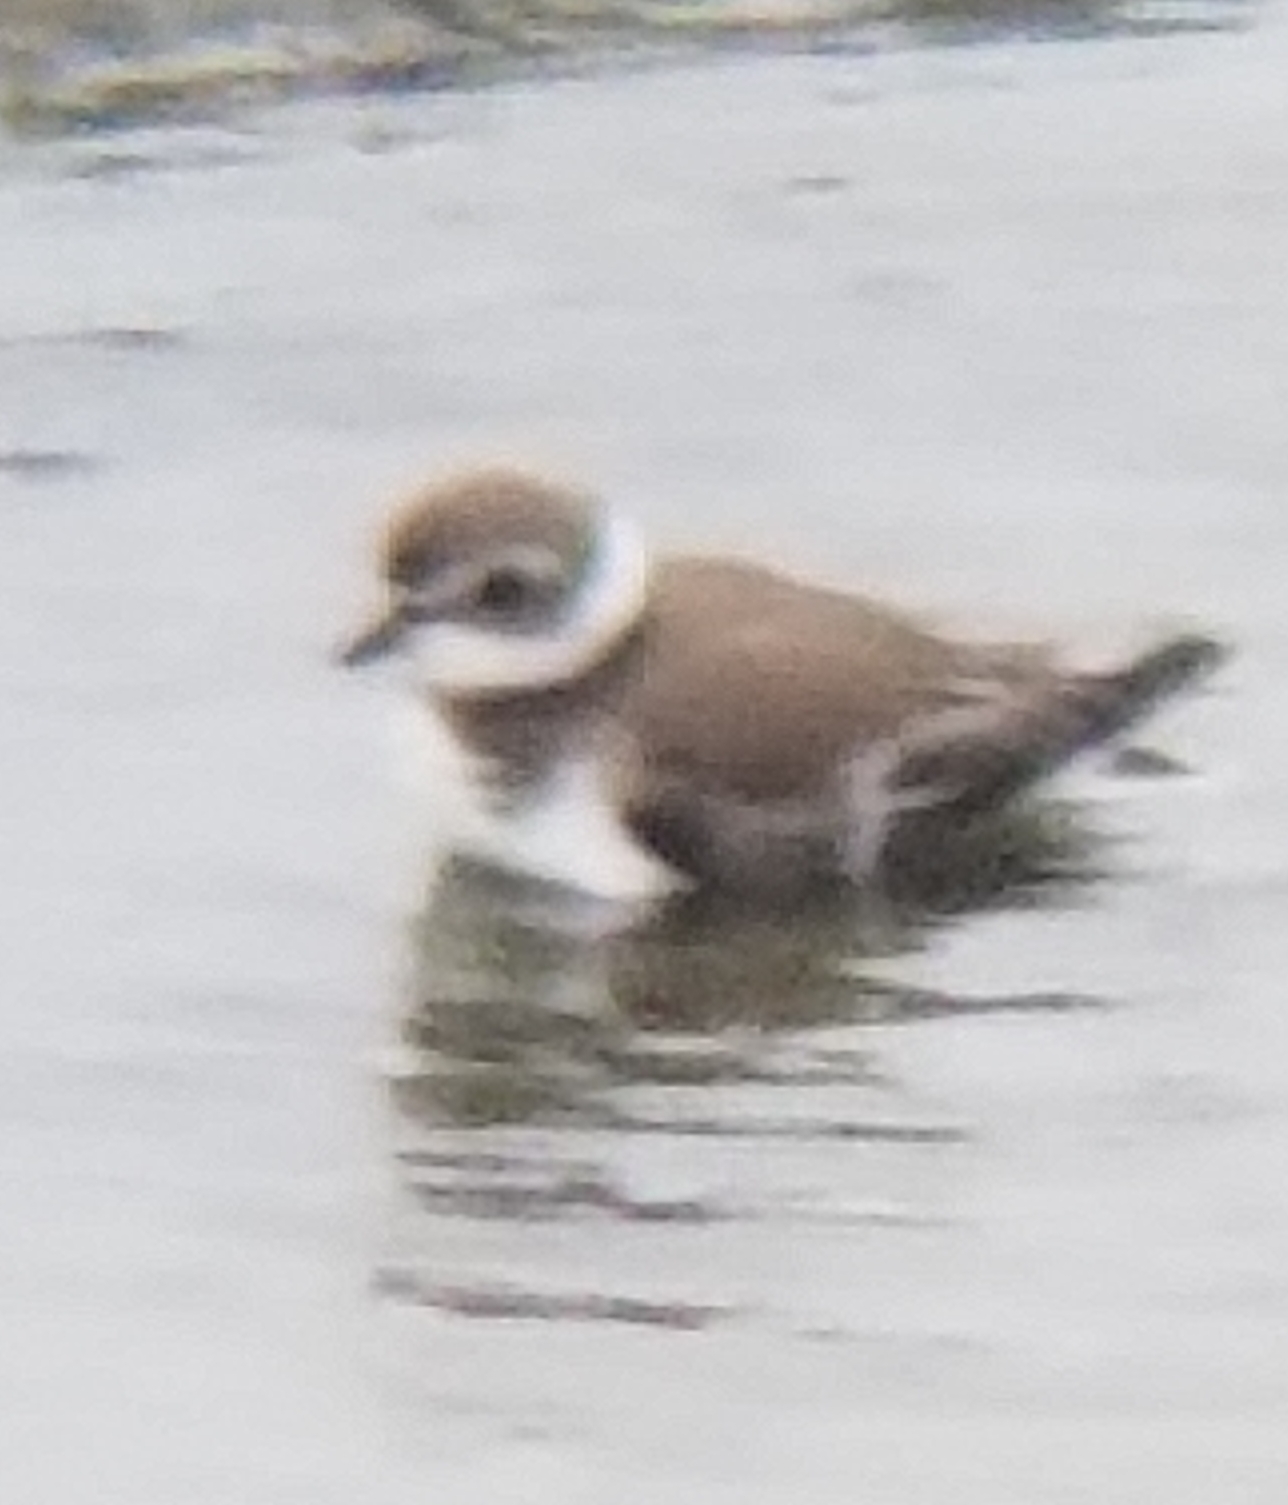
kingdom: Animalia
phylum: Chordata
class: Aves
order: Charadriiformes
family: Charadriidae
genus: Charadrius
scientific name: Charadrius semipalmatus
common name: Semipalmated plover
